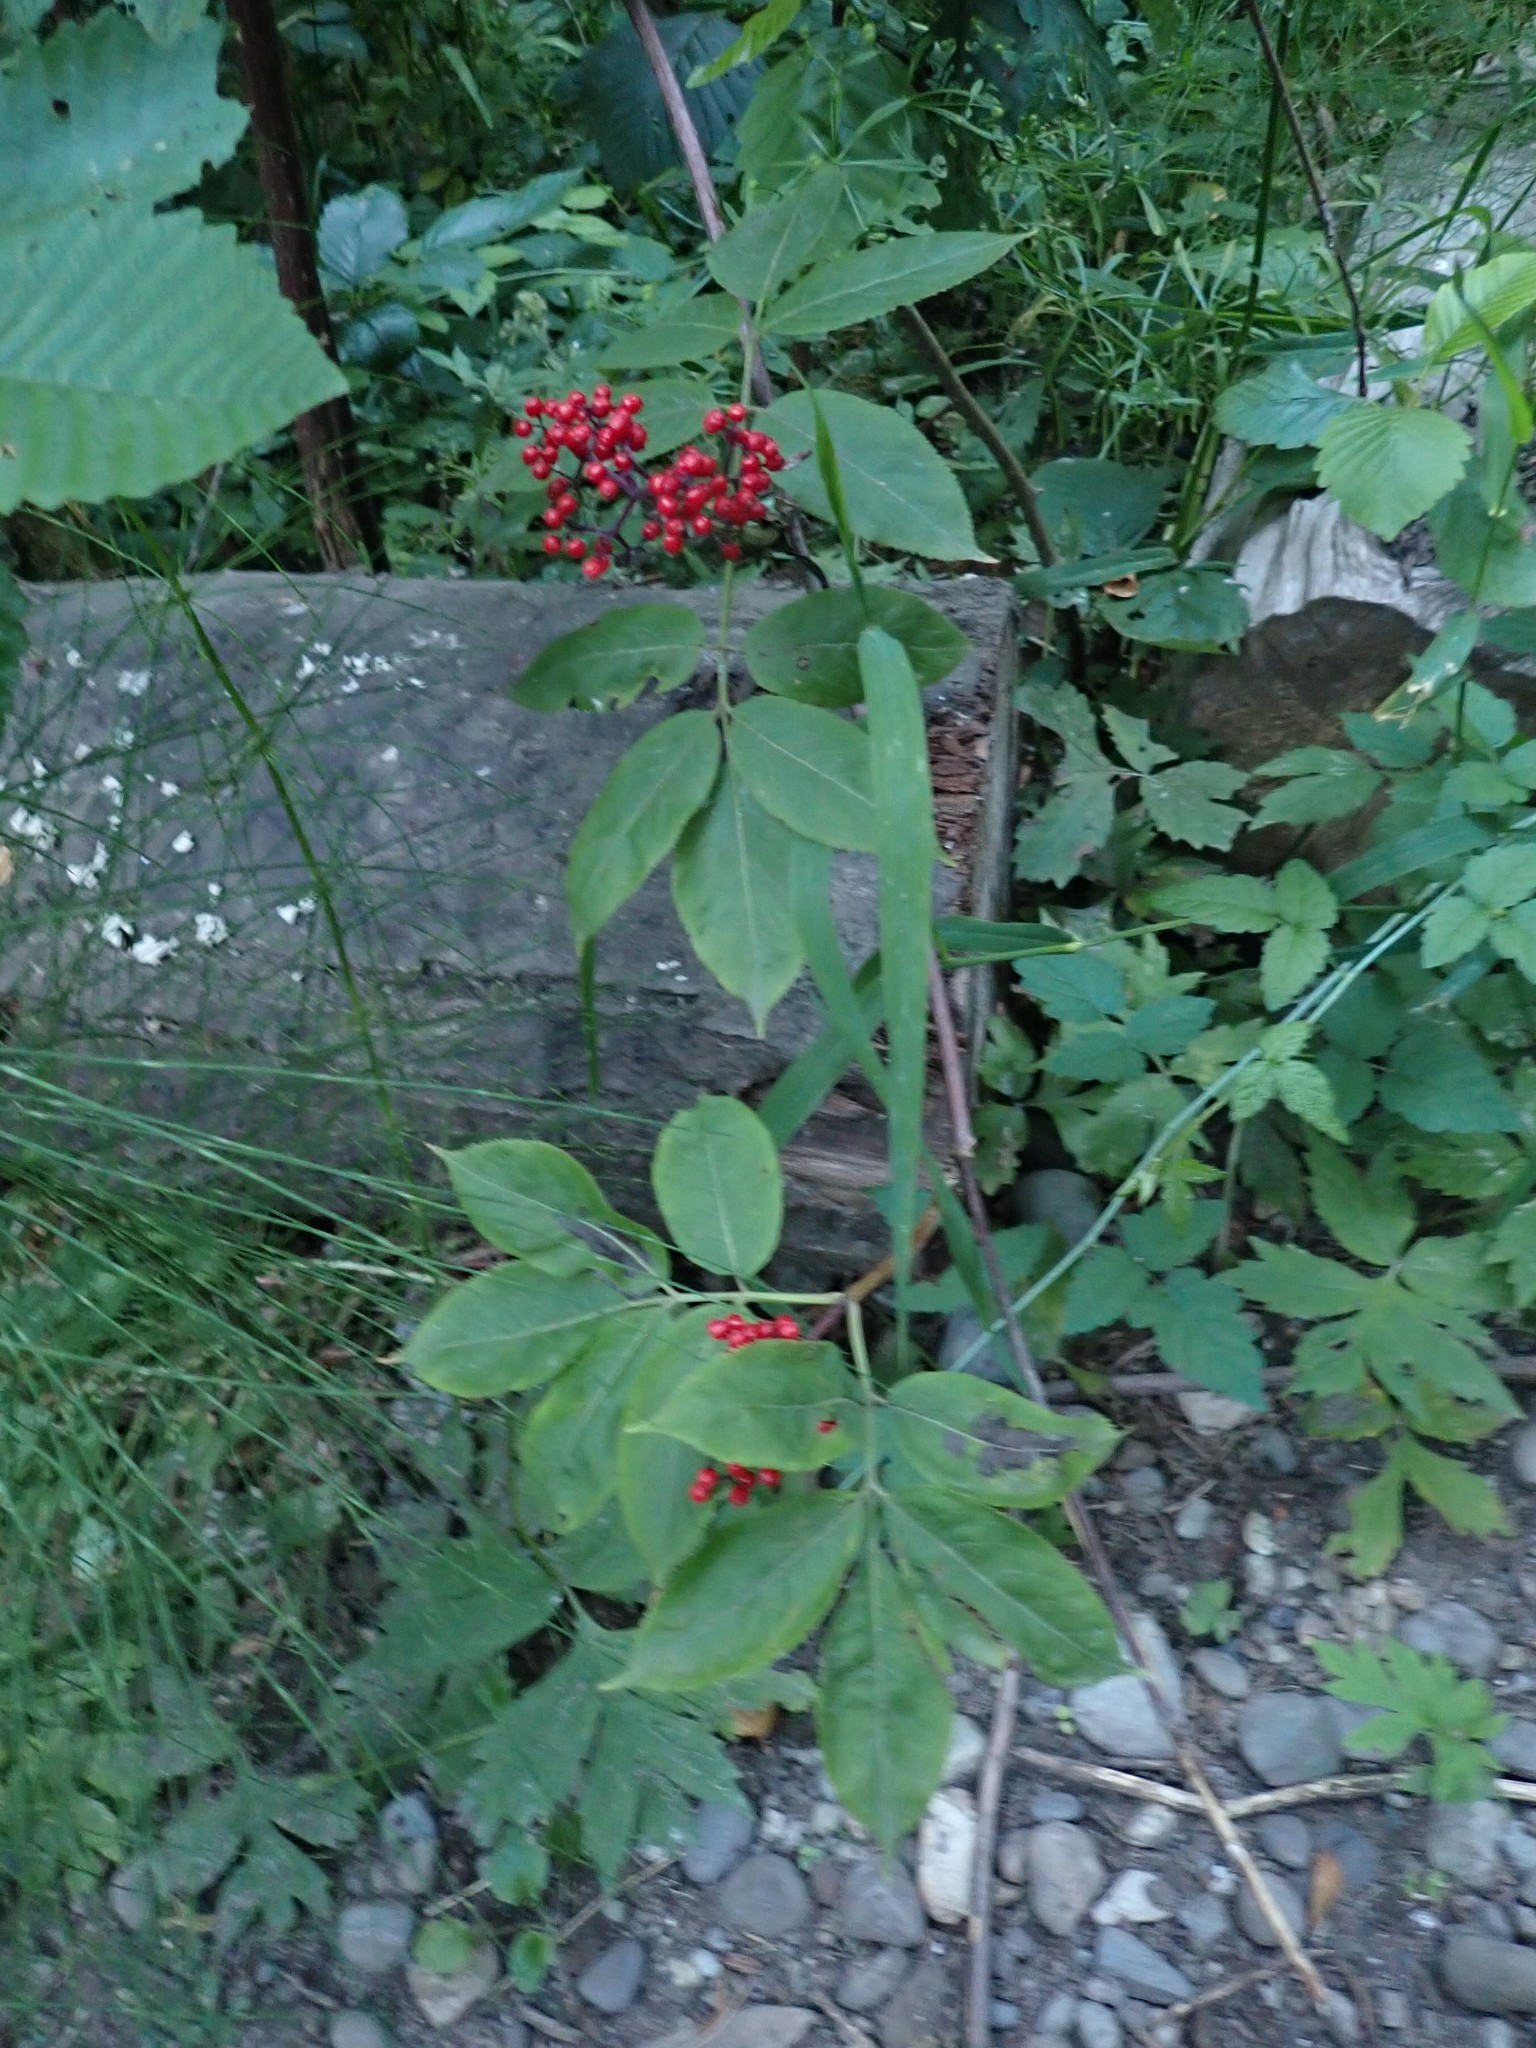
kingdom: Plantae
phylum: Tracheophyta
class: Magnoliopsida
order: Dipsacales
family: Viburnaceae
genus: Sambucus
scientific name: Sambucus racemosa
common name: Red-berried elder
